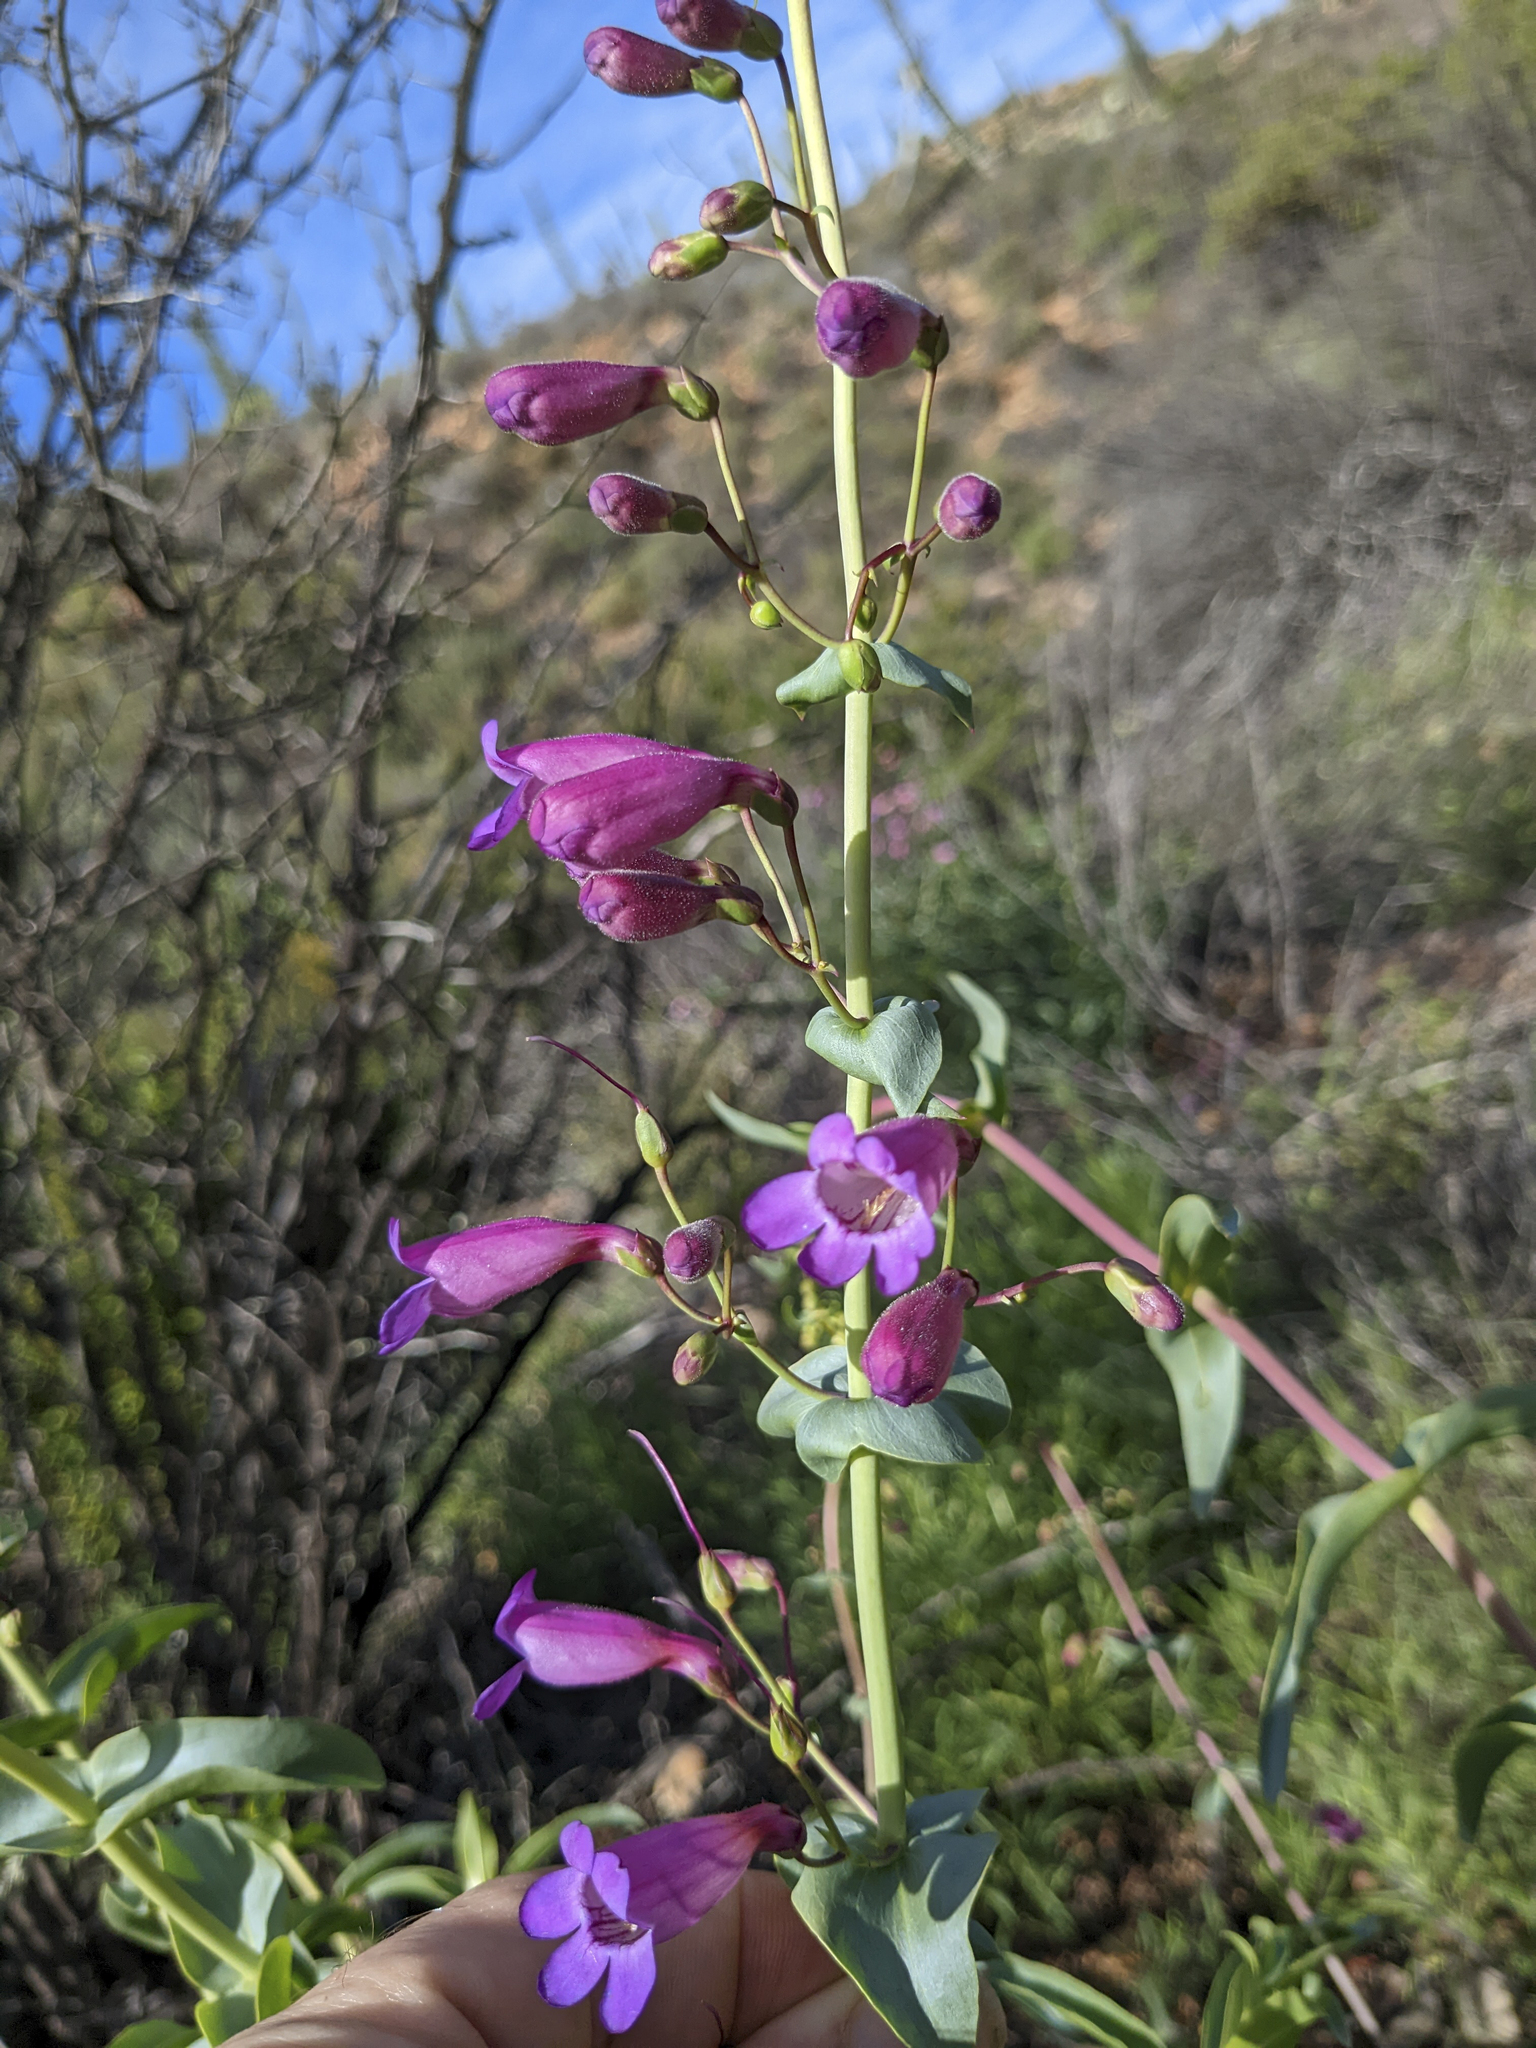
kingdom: Plantae
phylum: Tracheophyta
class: Magnoliopsida
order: Lamiales
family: Plantaginaceae
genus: Penstemon
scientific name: Penstemon spectabilis
